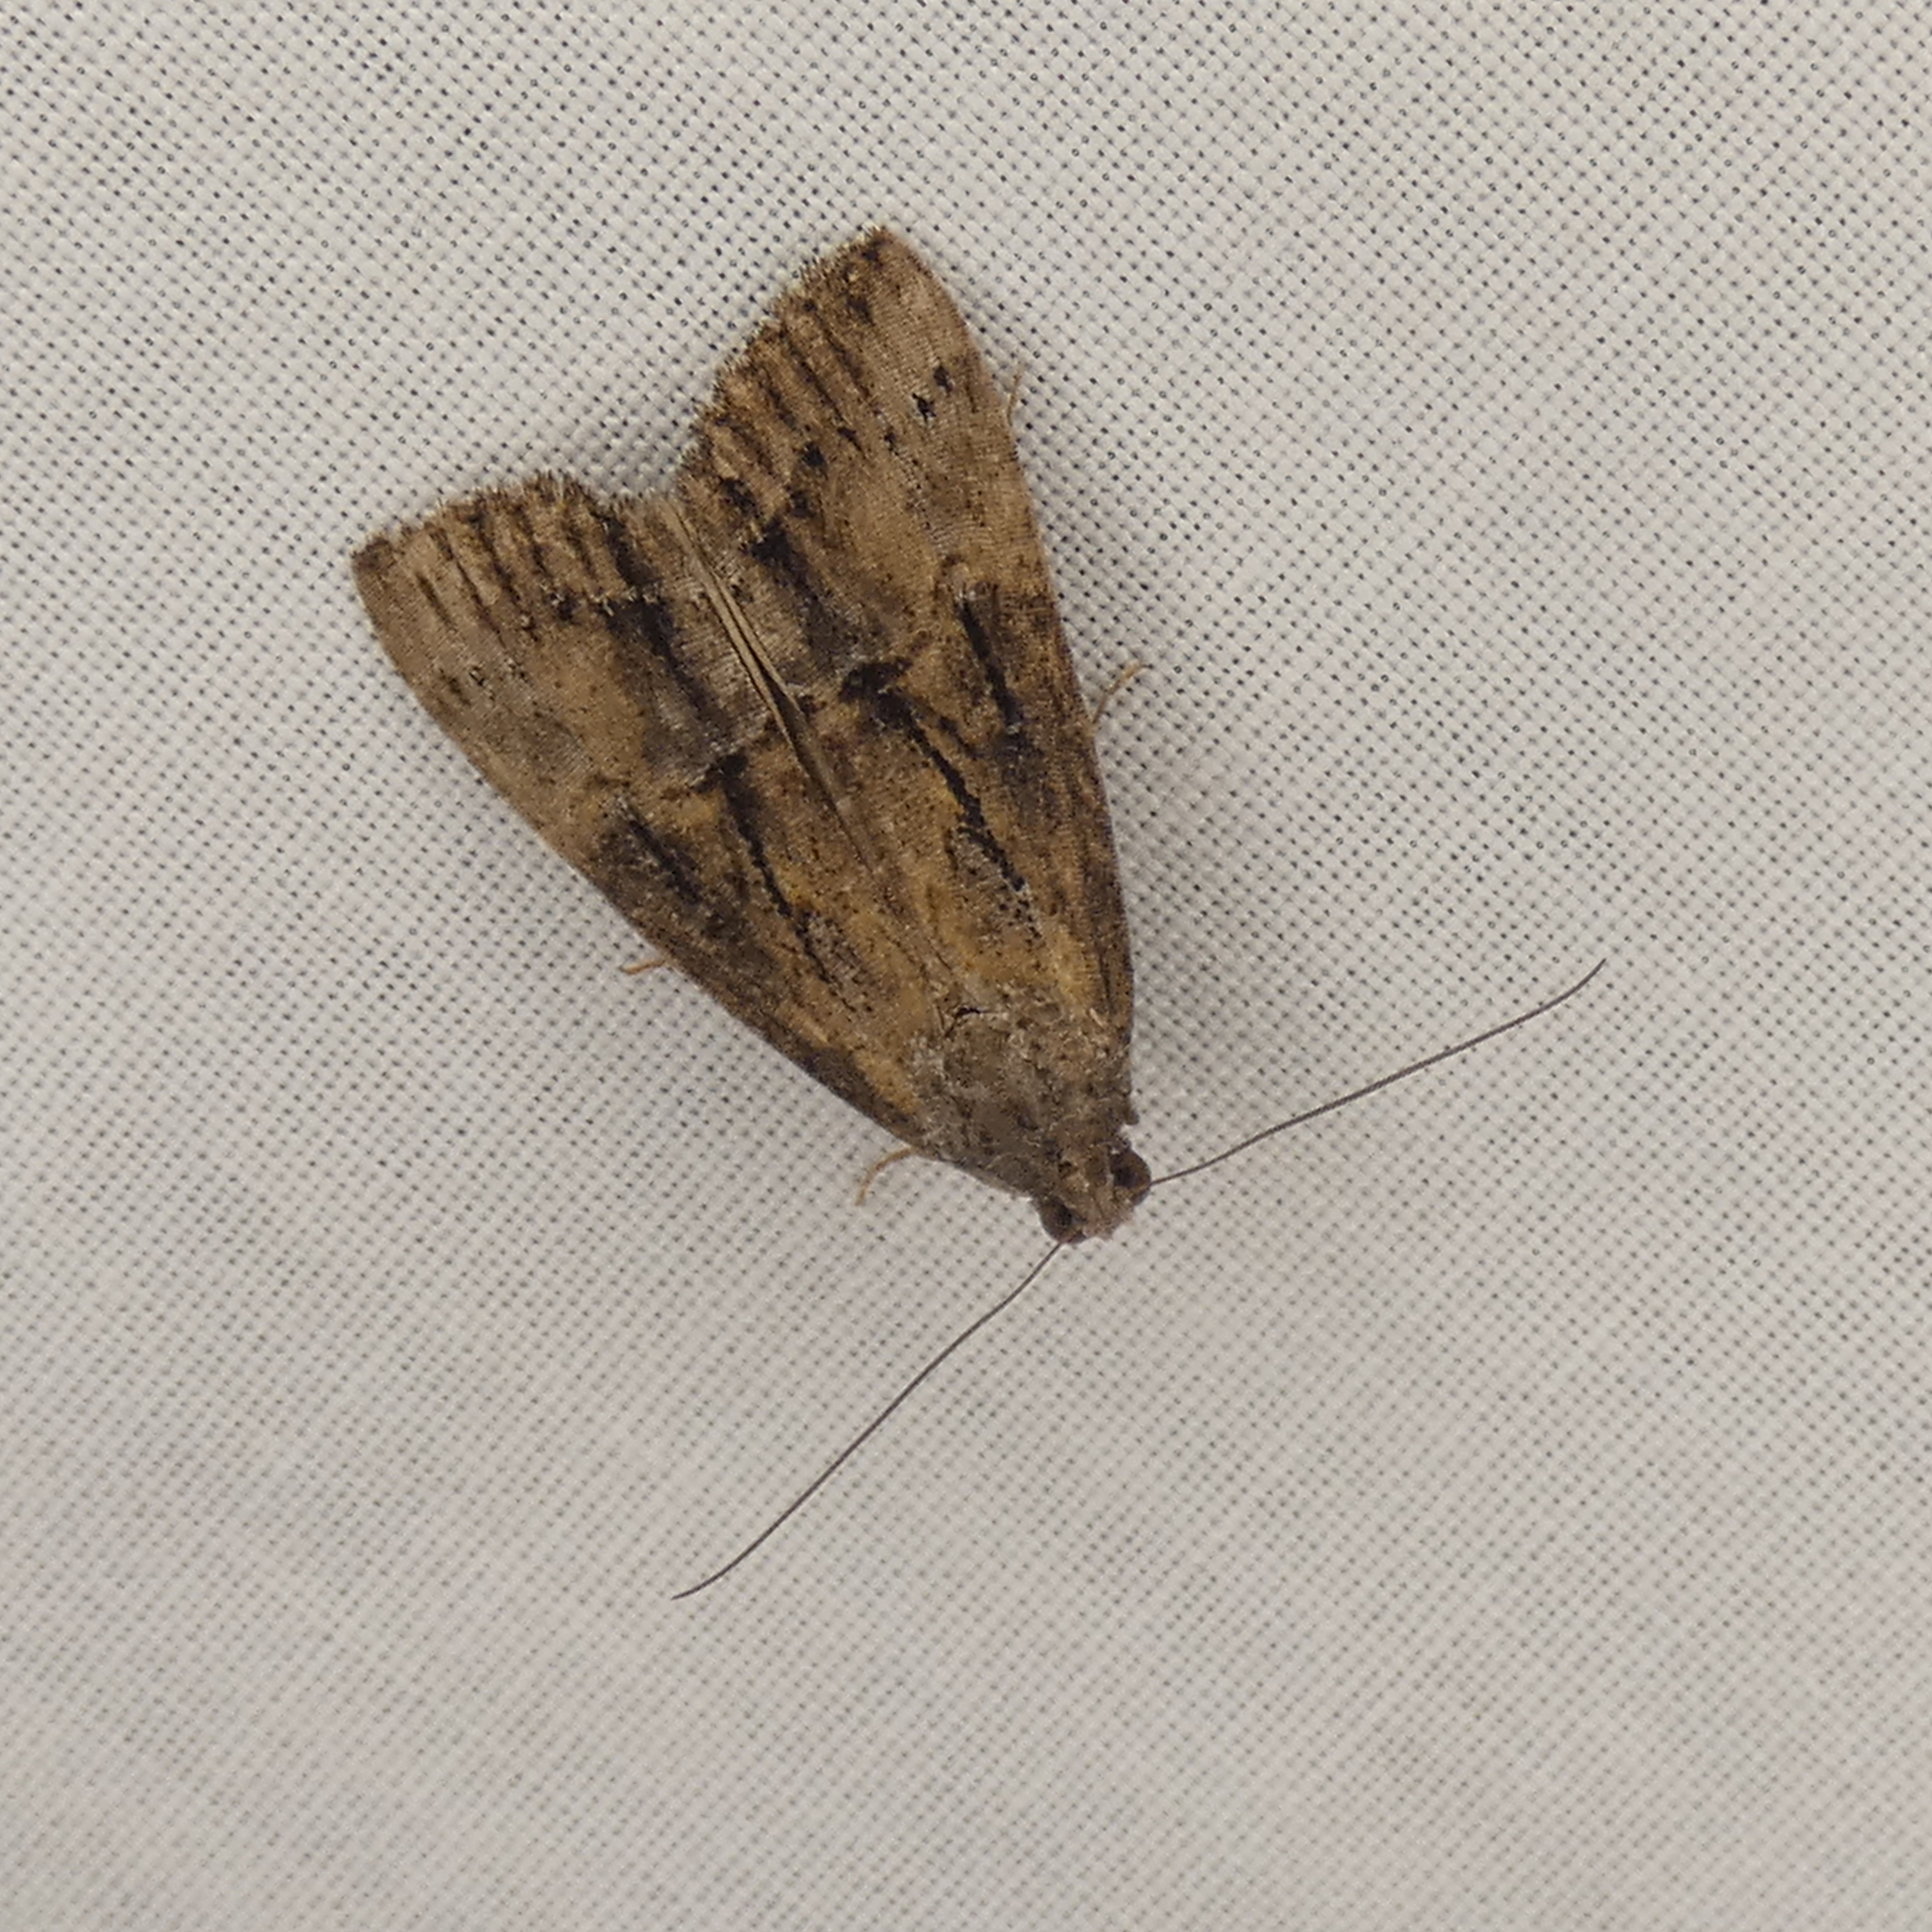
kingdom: Animalia
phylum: Arthropoda
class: Insecta
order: Lepidoptera
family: Erebidae
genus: Hypena
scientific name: Hypena scabra
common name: Green cloverworm
